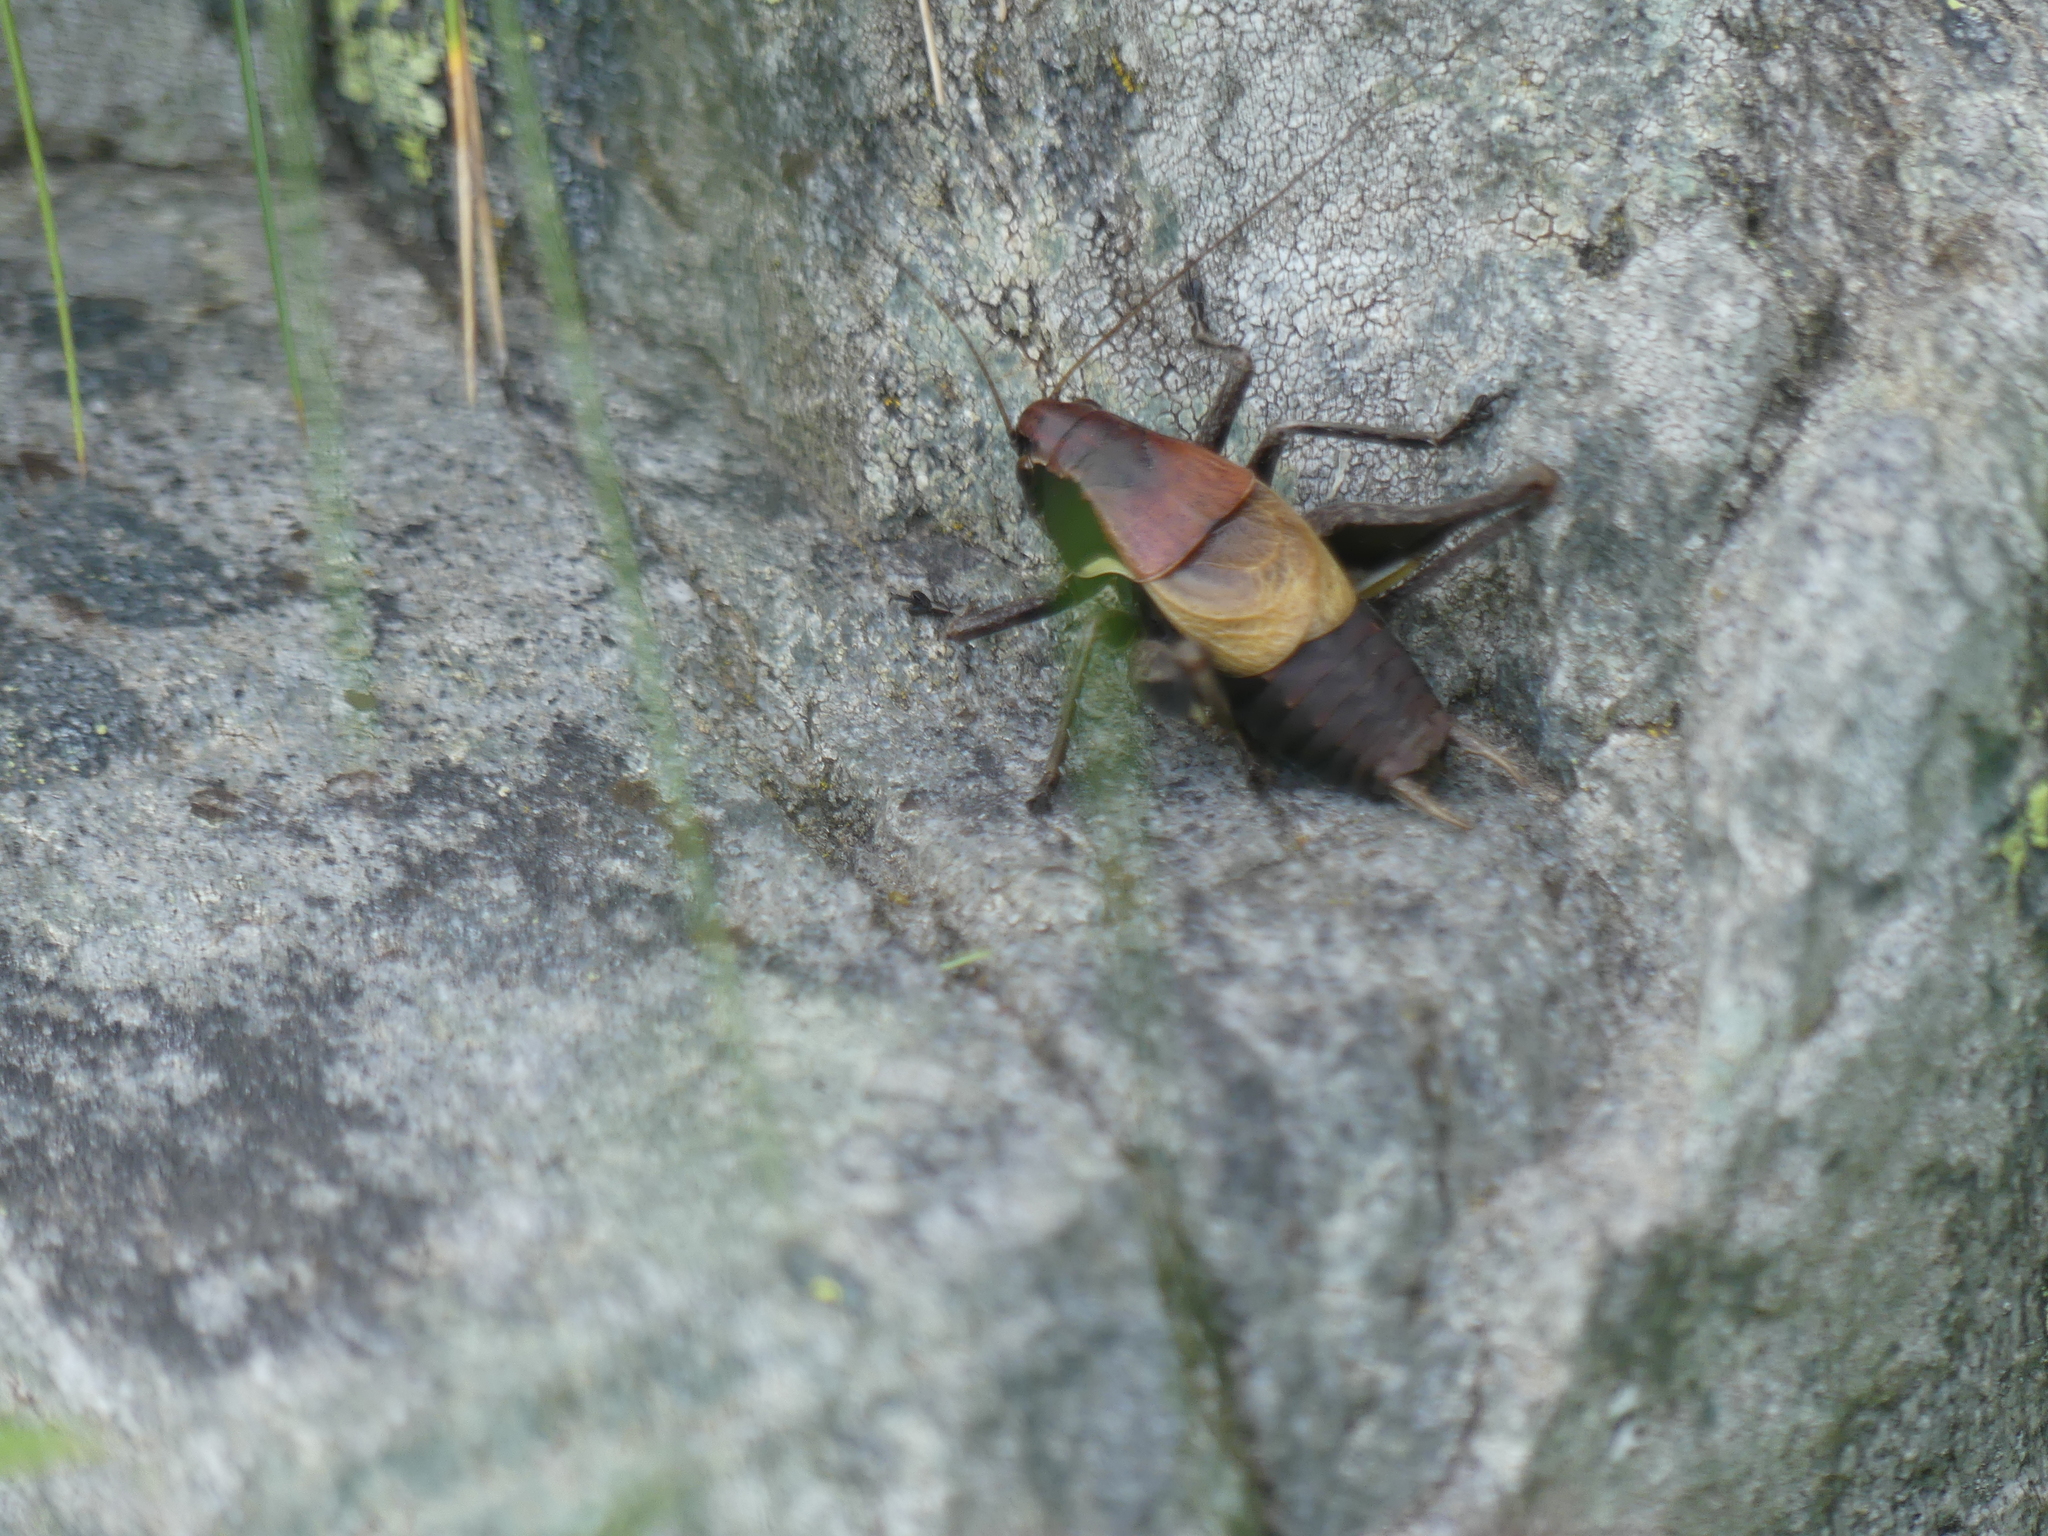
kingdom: Animalia
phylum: Arthropoda
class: Insecta
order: Orthoptera
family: Tettigoniidae
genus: Pholidoptera
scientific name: Pholidoptera aptera
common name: Alpine dark bush-cricket
